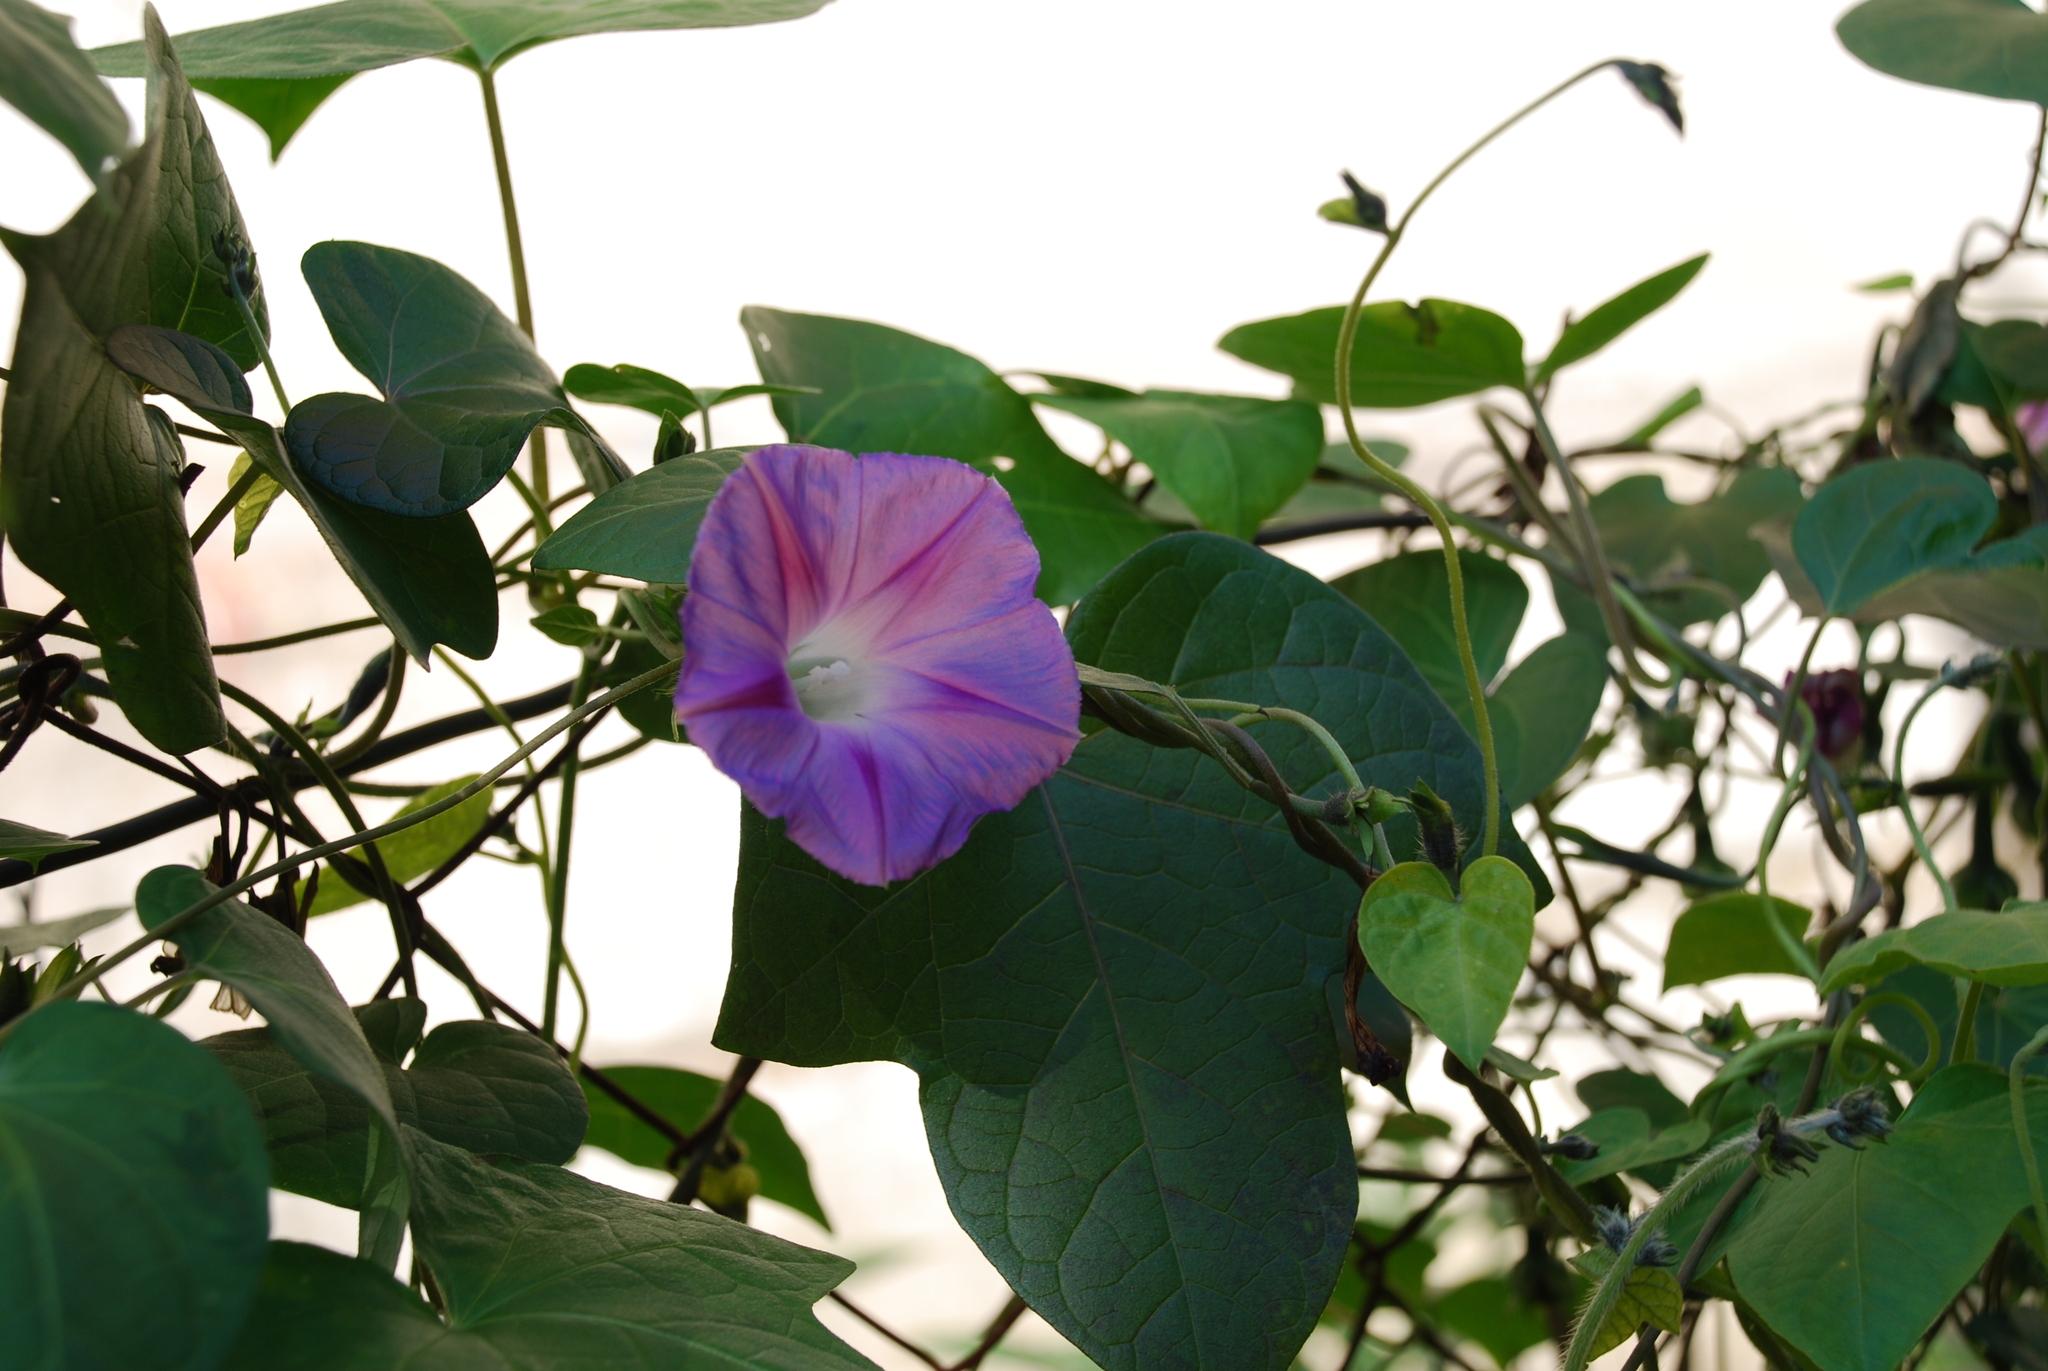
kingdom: Plantae
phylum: Tracheophyta
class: Magnoliopsida
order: Solanales
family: Convolvulaceae
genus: Ipomoea
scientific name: Ipomoea purpurea
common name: Common morning-glory
